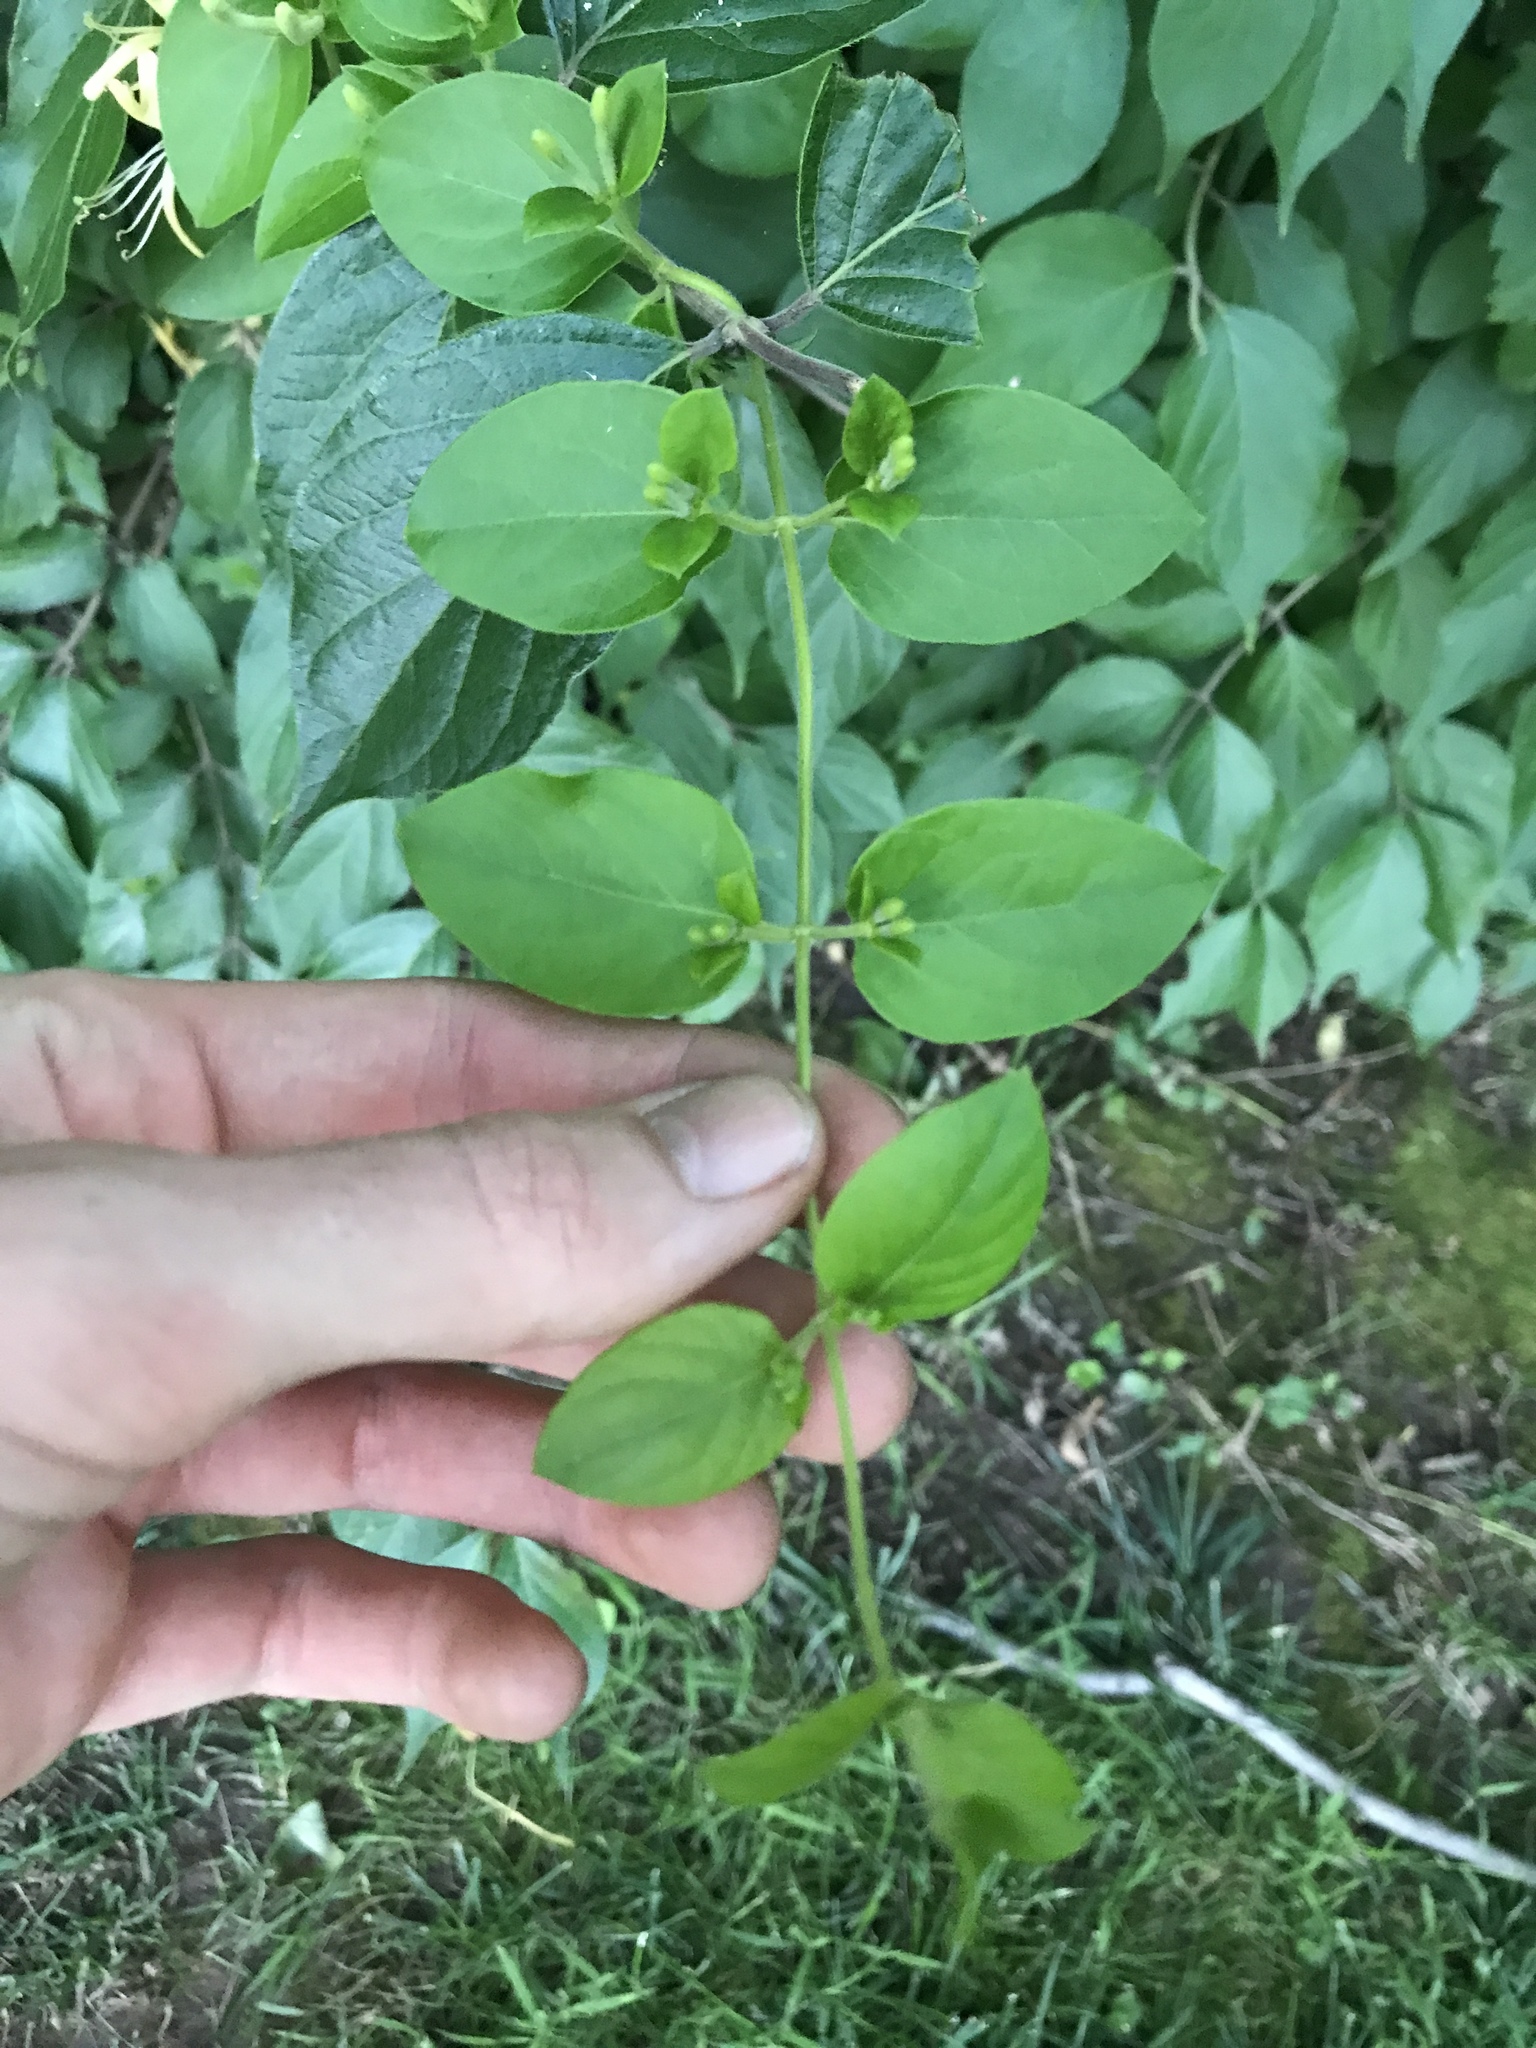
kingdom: Plantae
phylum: Tracheophyta
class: Magnoliopsida
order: Dipsacales
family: Caprifoliaceae
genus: Lonicera
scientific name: Lonicera japonica
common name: Japanese honeysuckle
